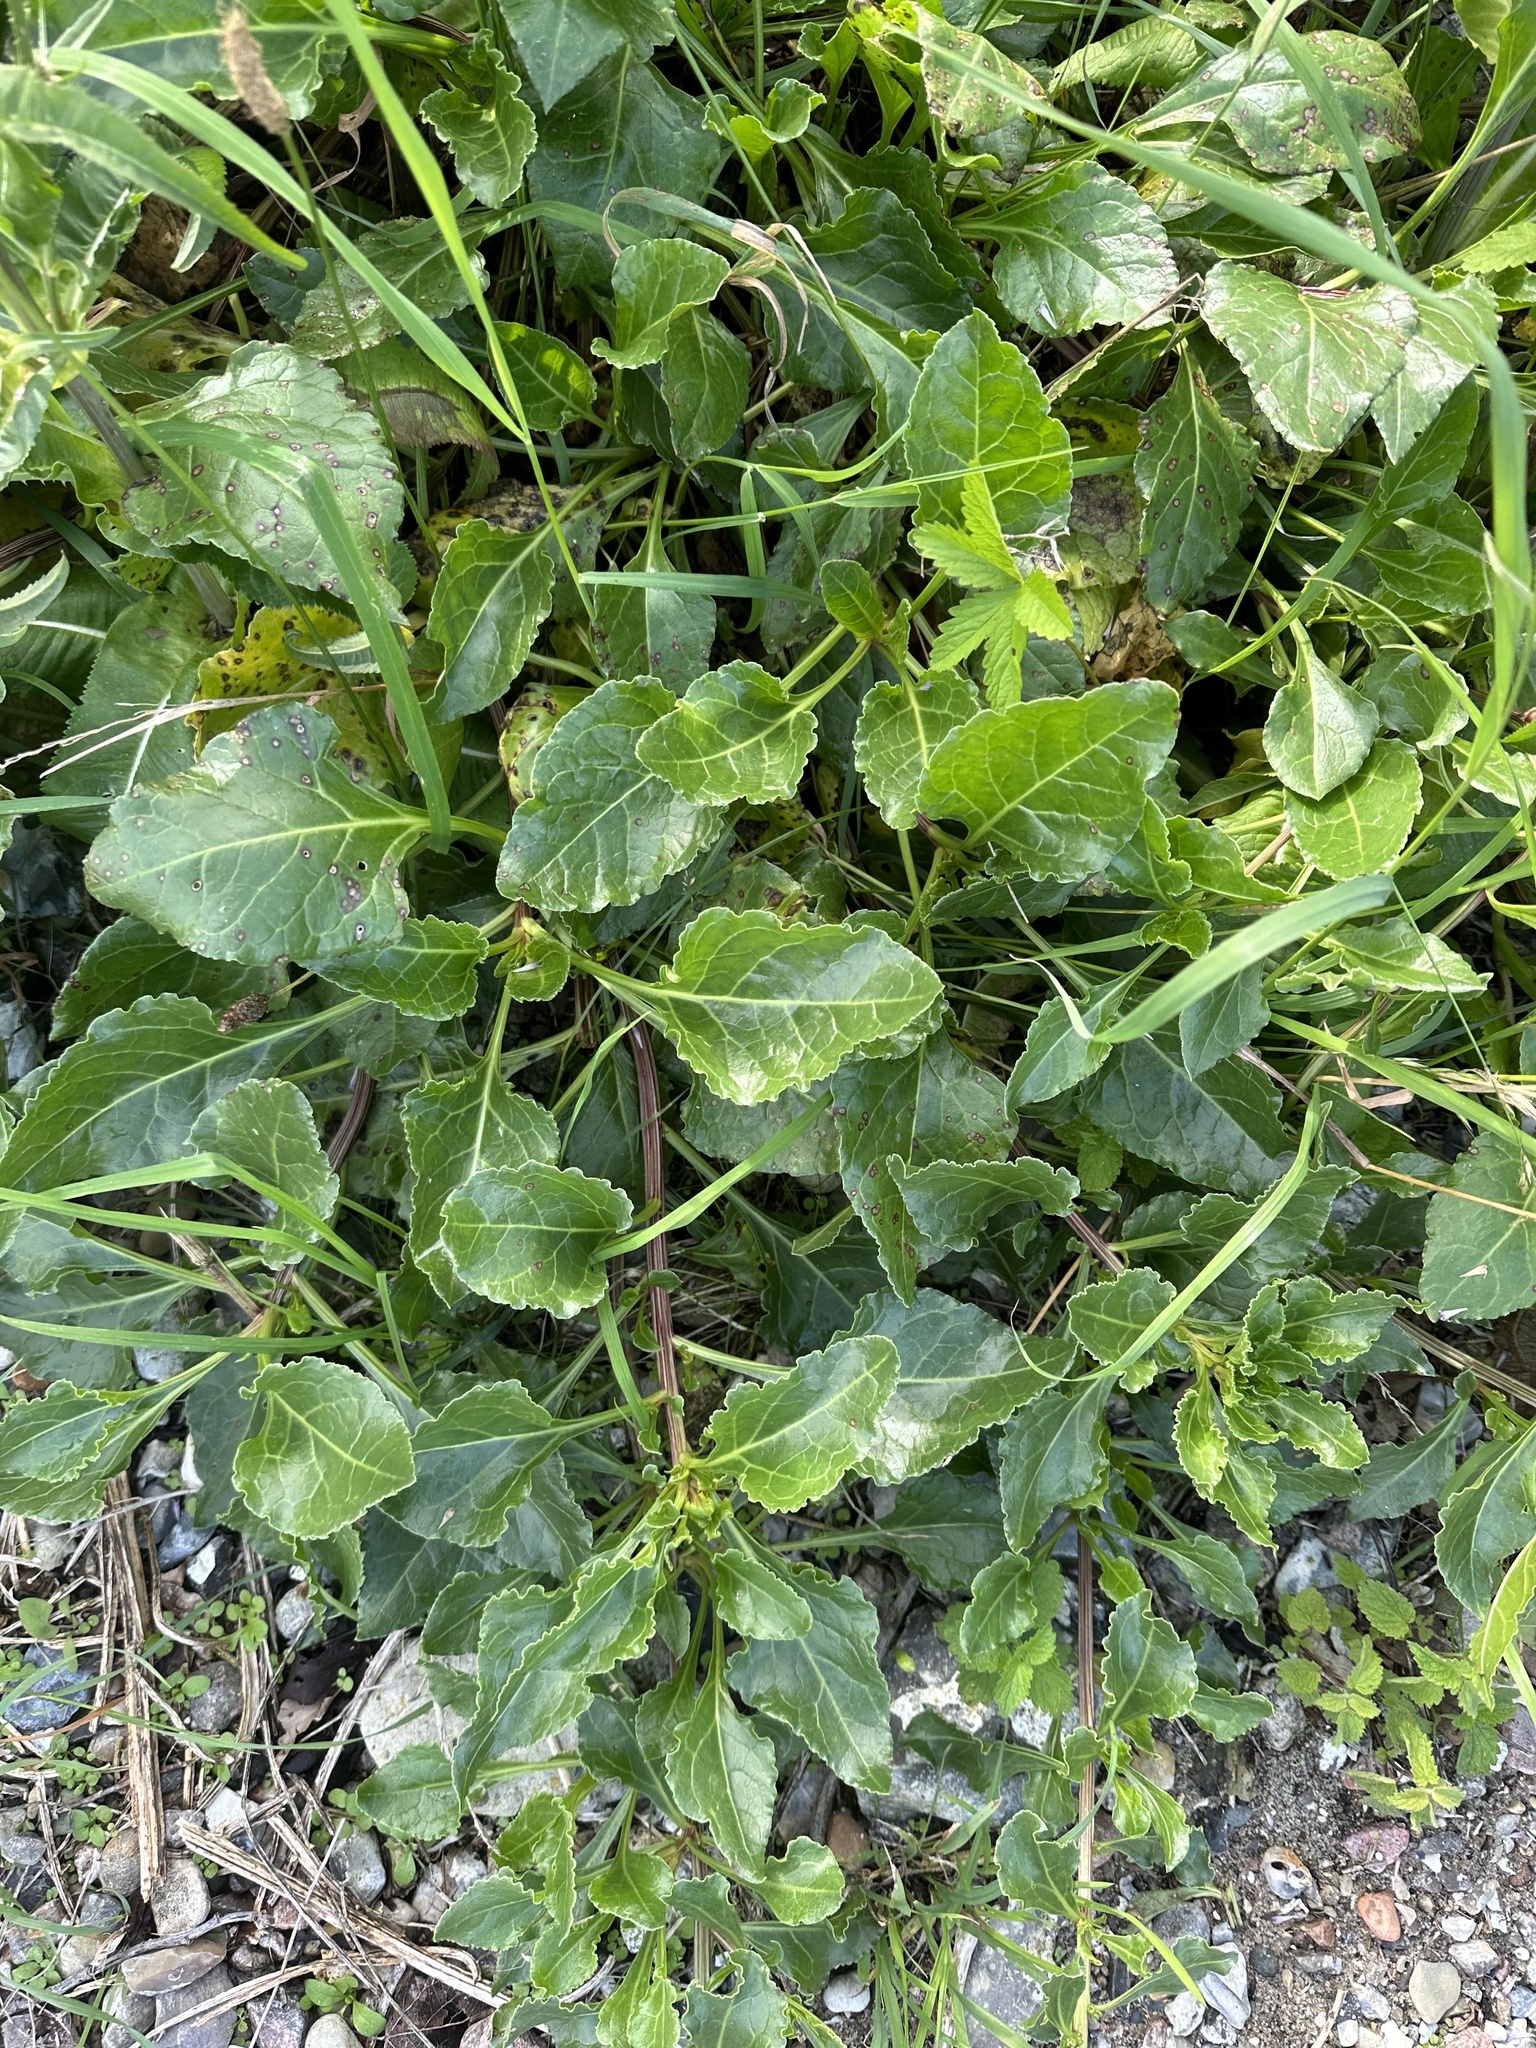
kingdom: Plantae
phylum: Tracheophyta
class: Magnoliopsida
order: Caryophyllales
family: Amaranthaceae
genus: Beta
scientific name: Beta vulgaris
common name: Beet
